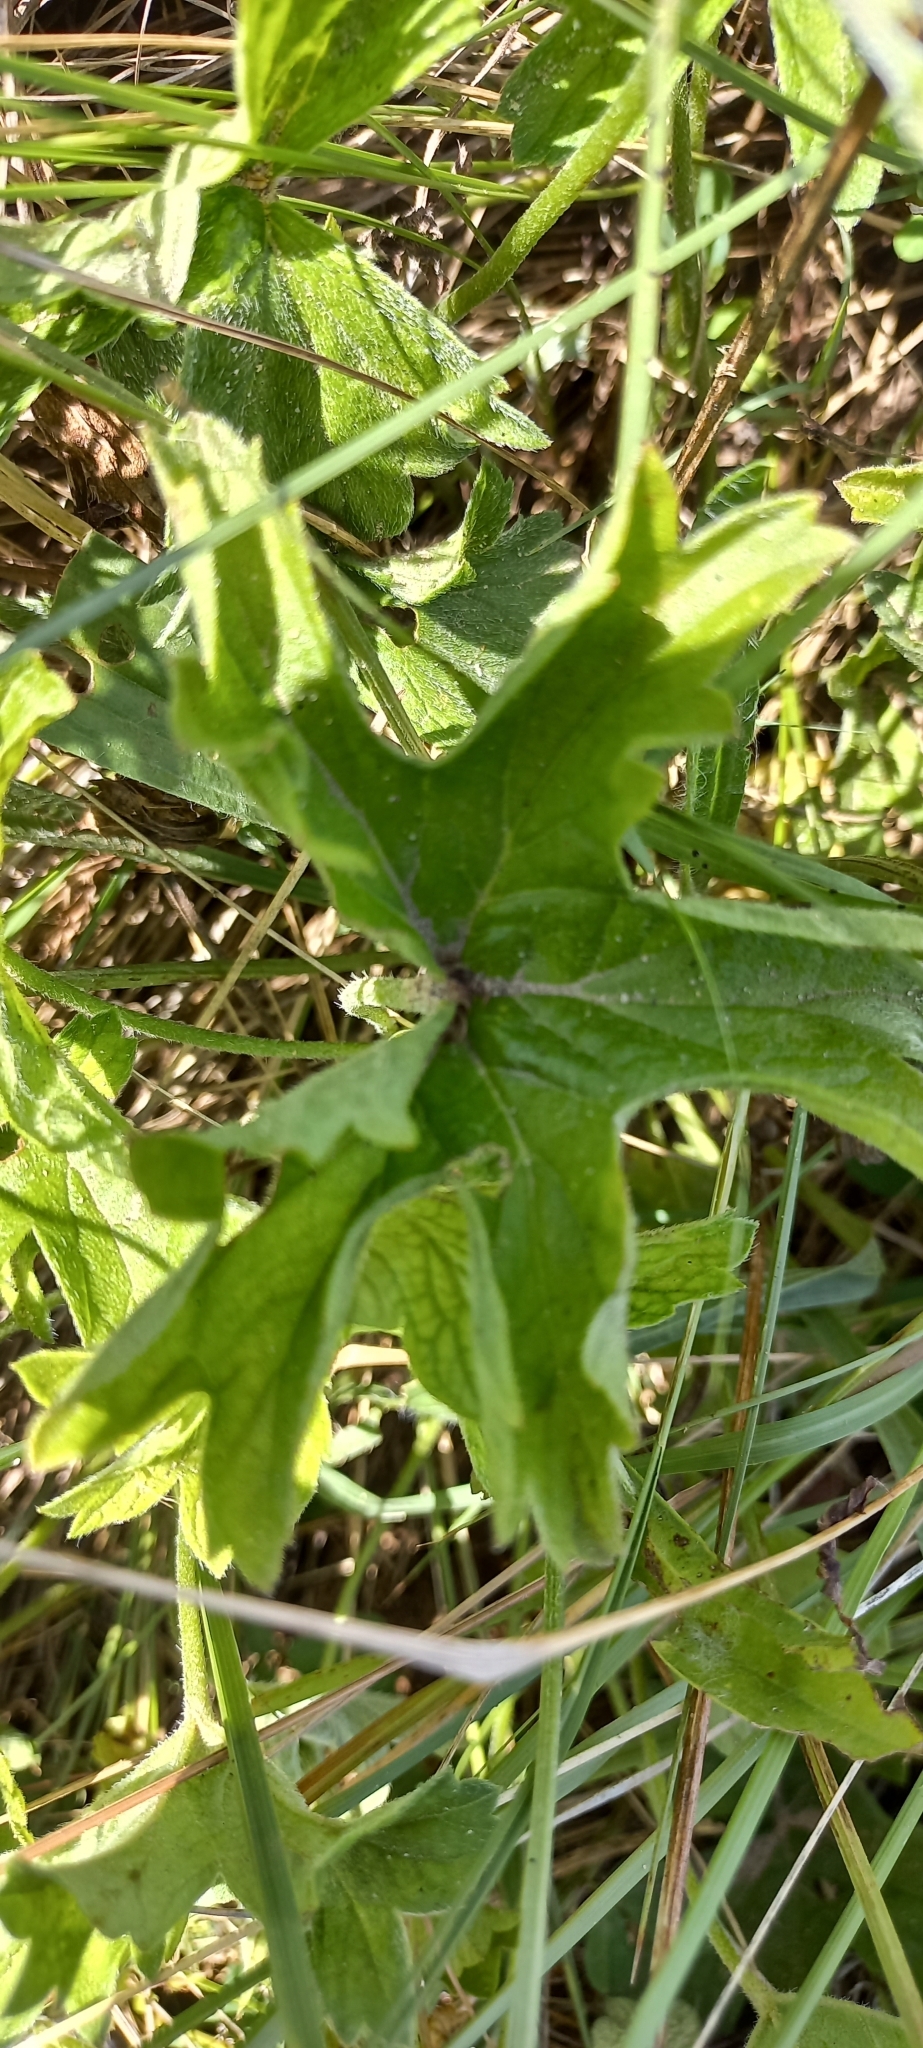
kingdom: Plantae
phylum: Tracheophyta
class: Magnoliopsida
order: Geraniales
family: Geraniaceae
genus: Pelargonium
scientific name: Pelargonium alchemilloides
